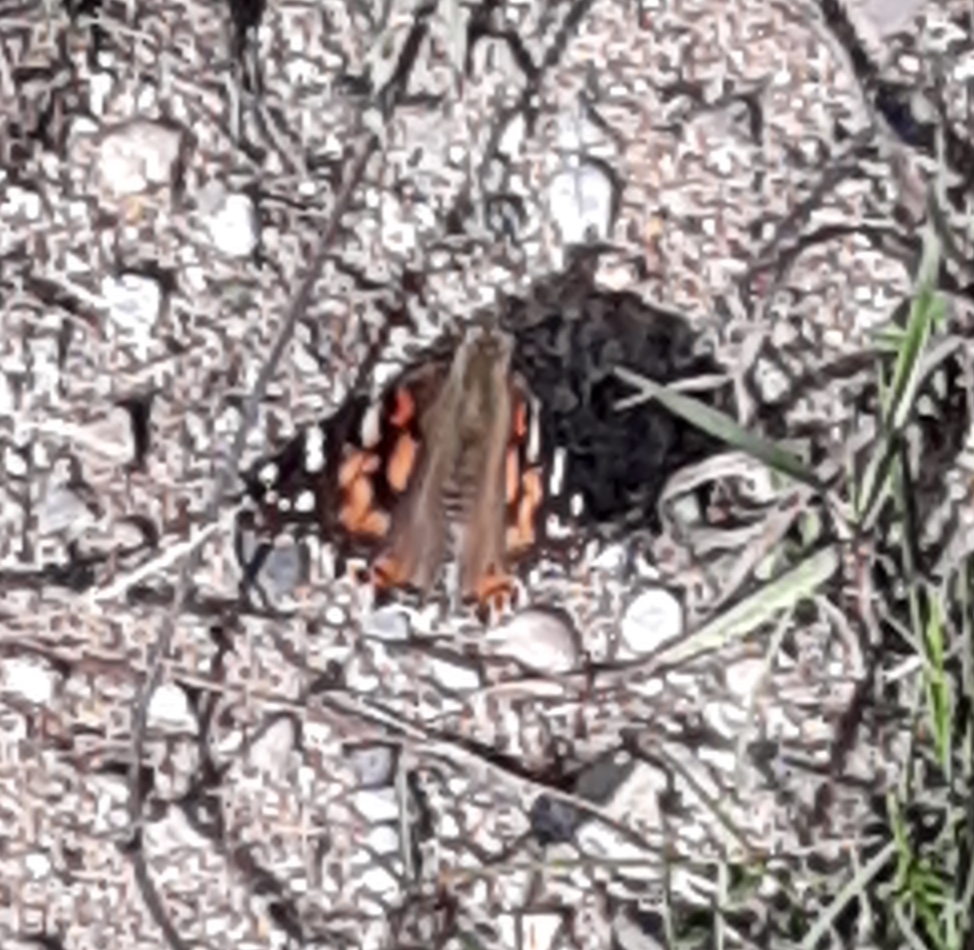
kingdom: Animalia
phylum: Arthropoda
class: Insecta
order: Lepidoptera
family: Nymphalidae
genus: Vanessa
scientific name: Vanessa cardui
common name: Painted lady
